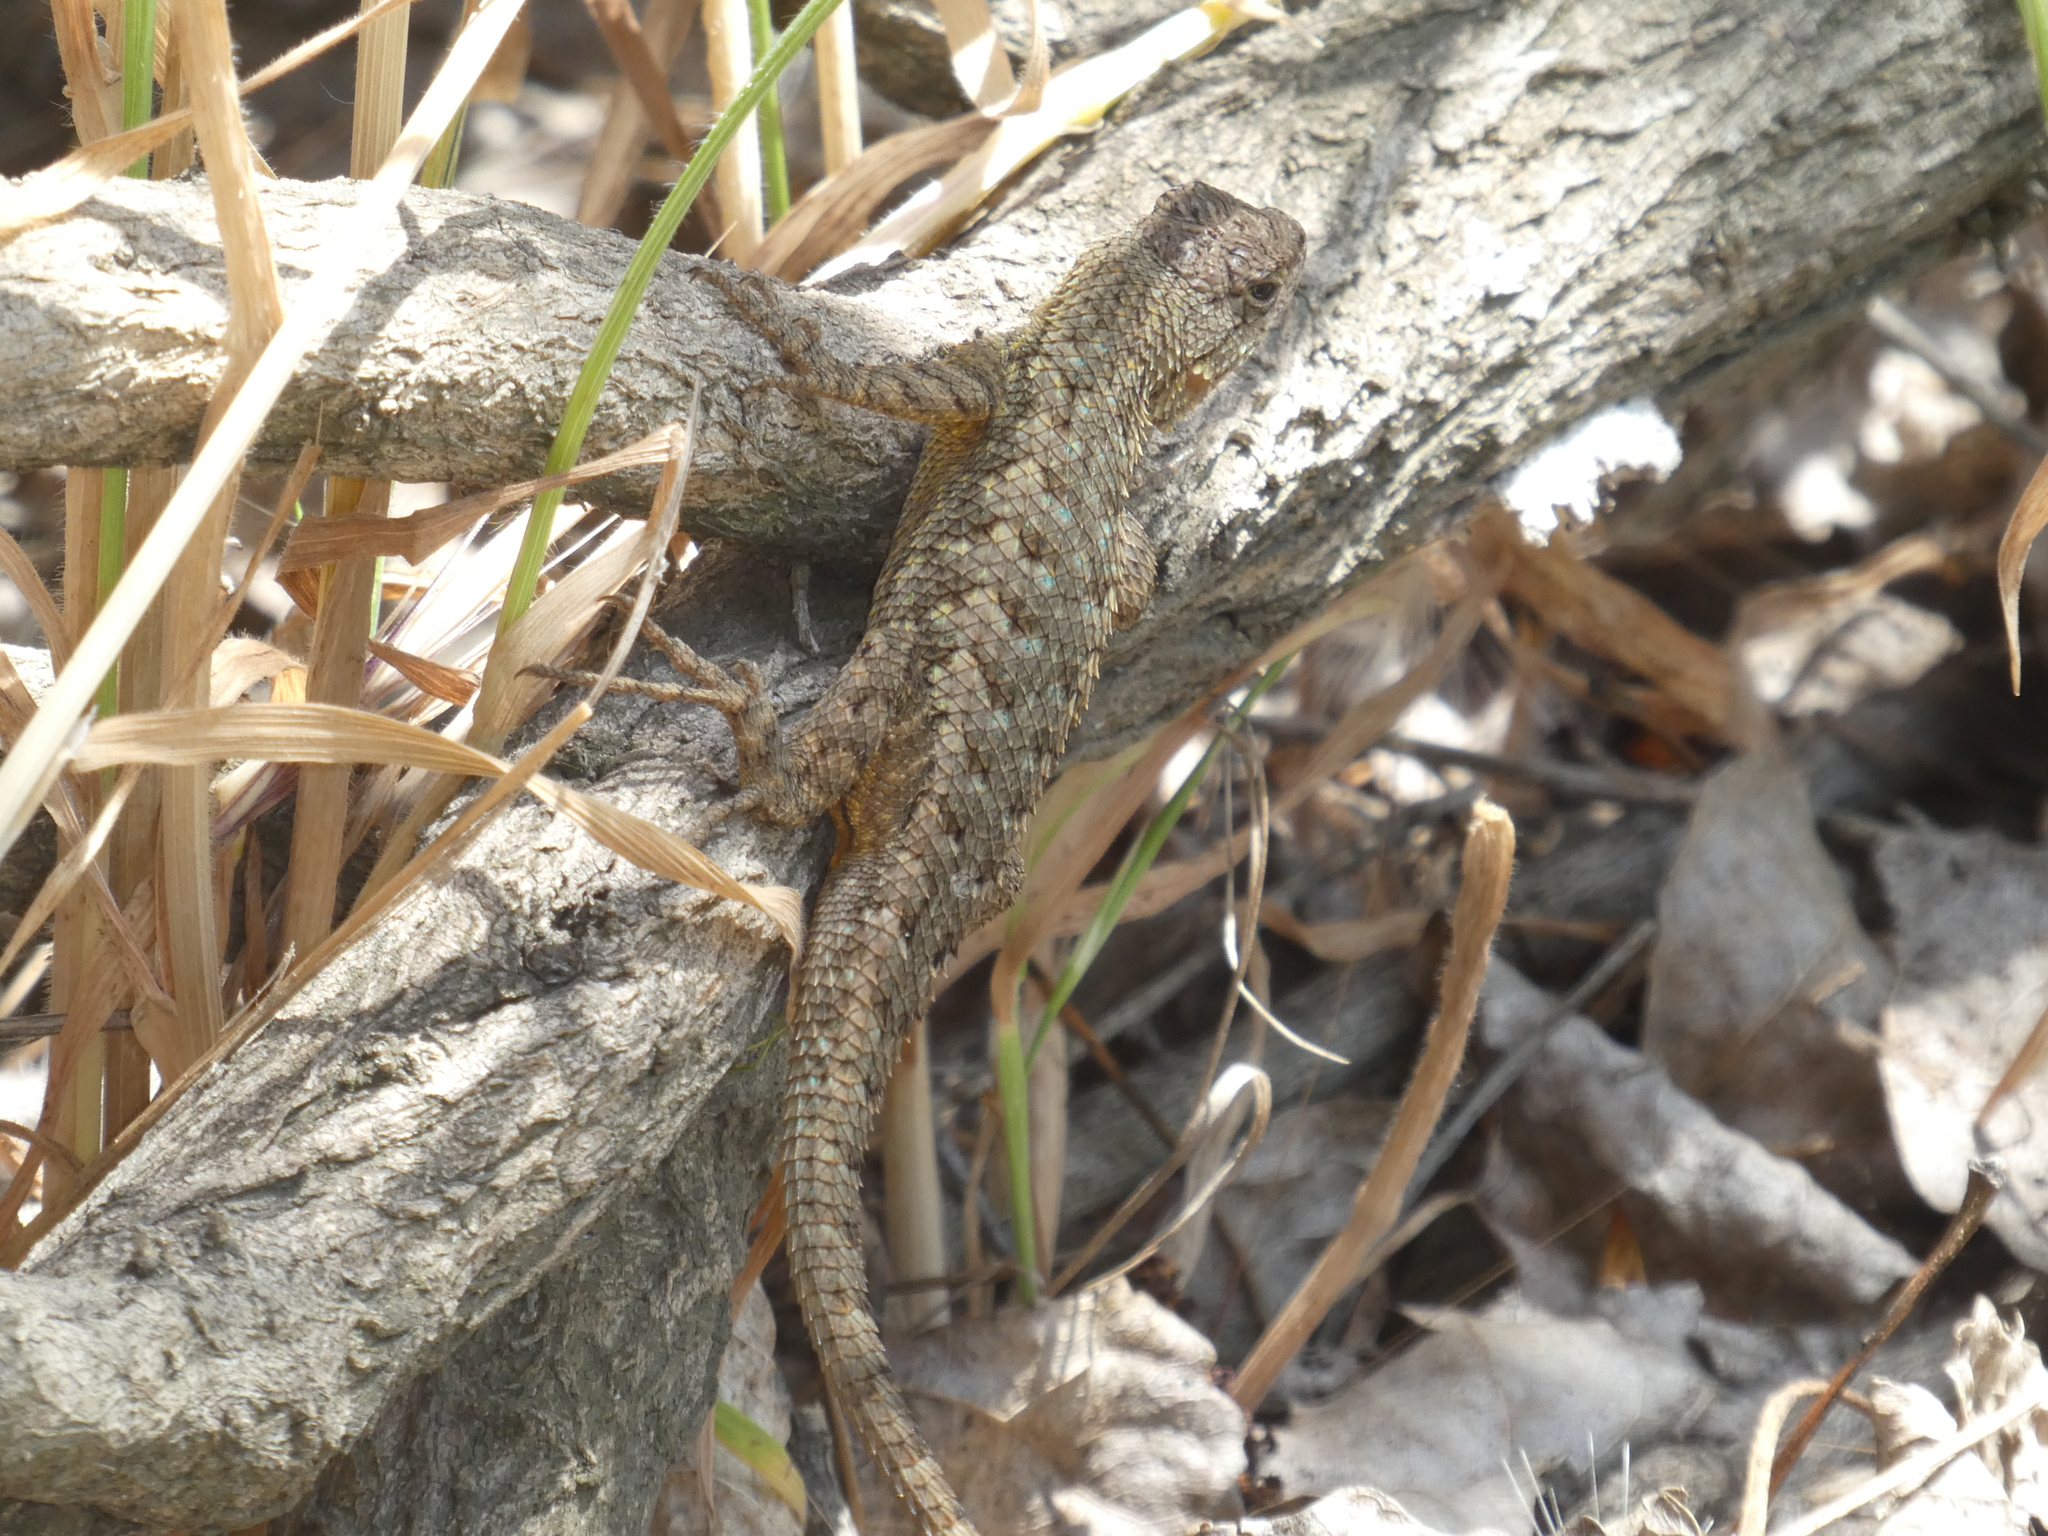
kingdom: Animalia
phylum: Chordata
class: Squamata
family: Phrynosomatidae
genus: Sceloporus
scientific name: Sceloporus occidentalis
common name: Western fence lizard
